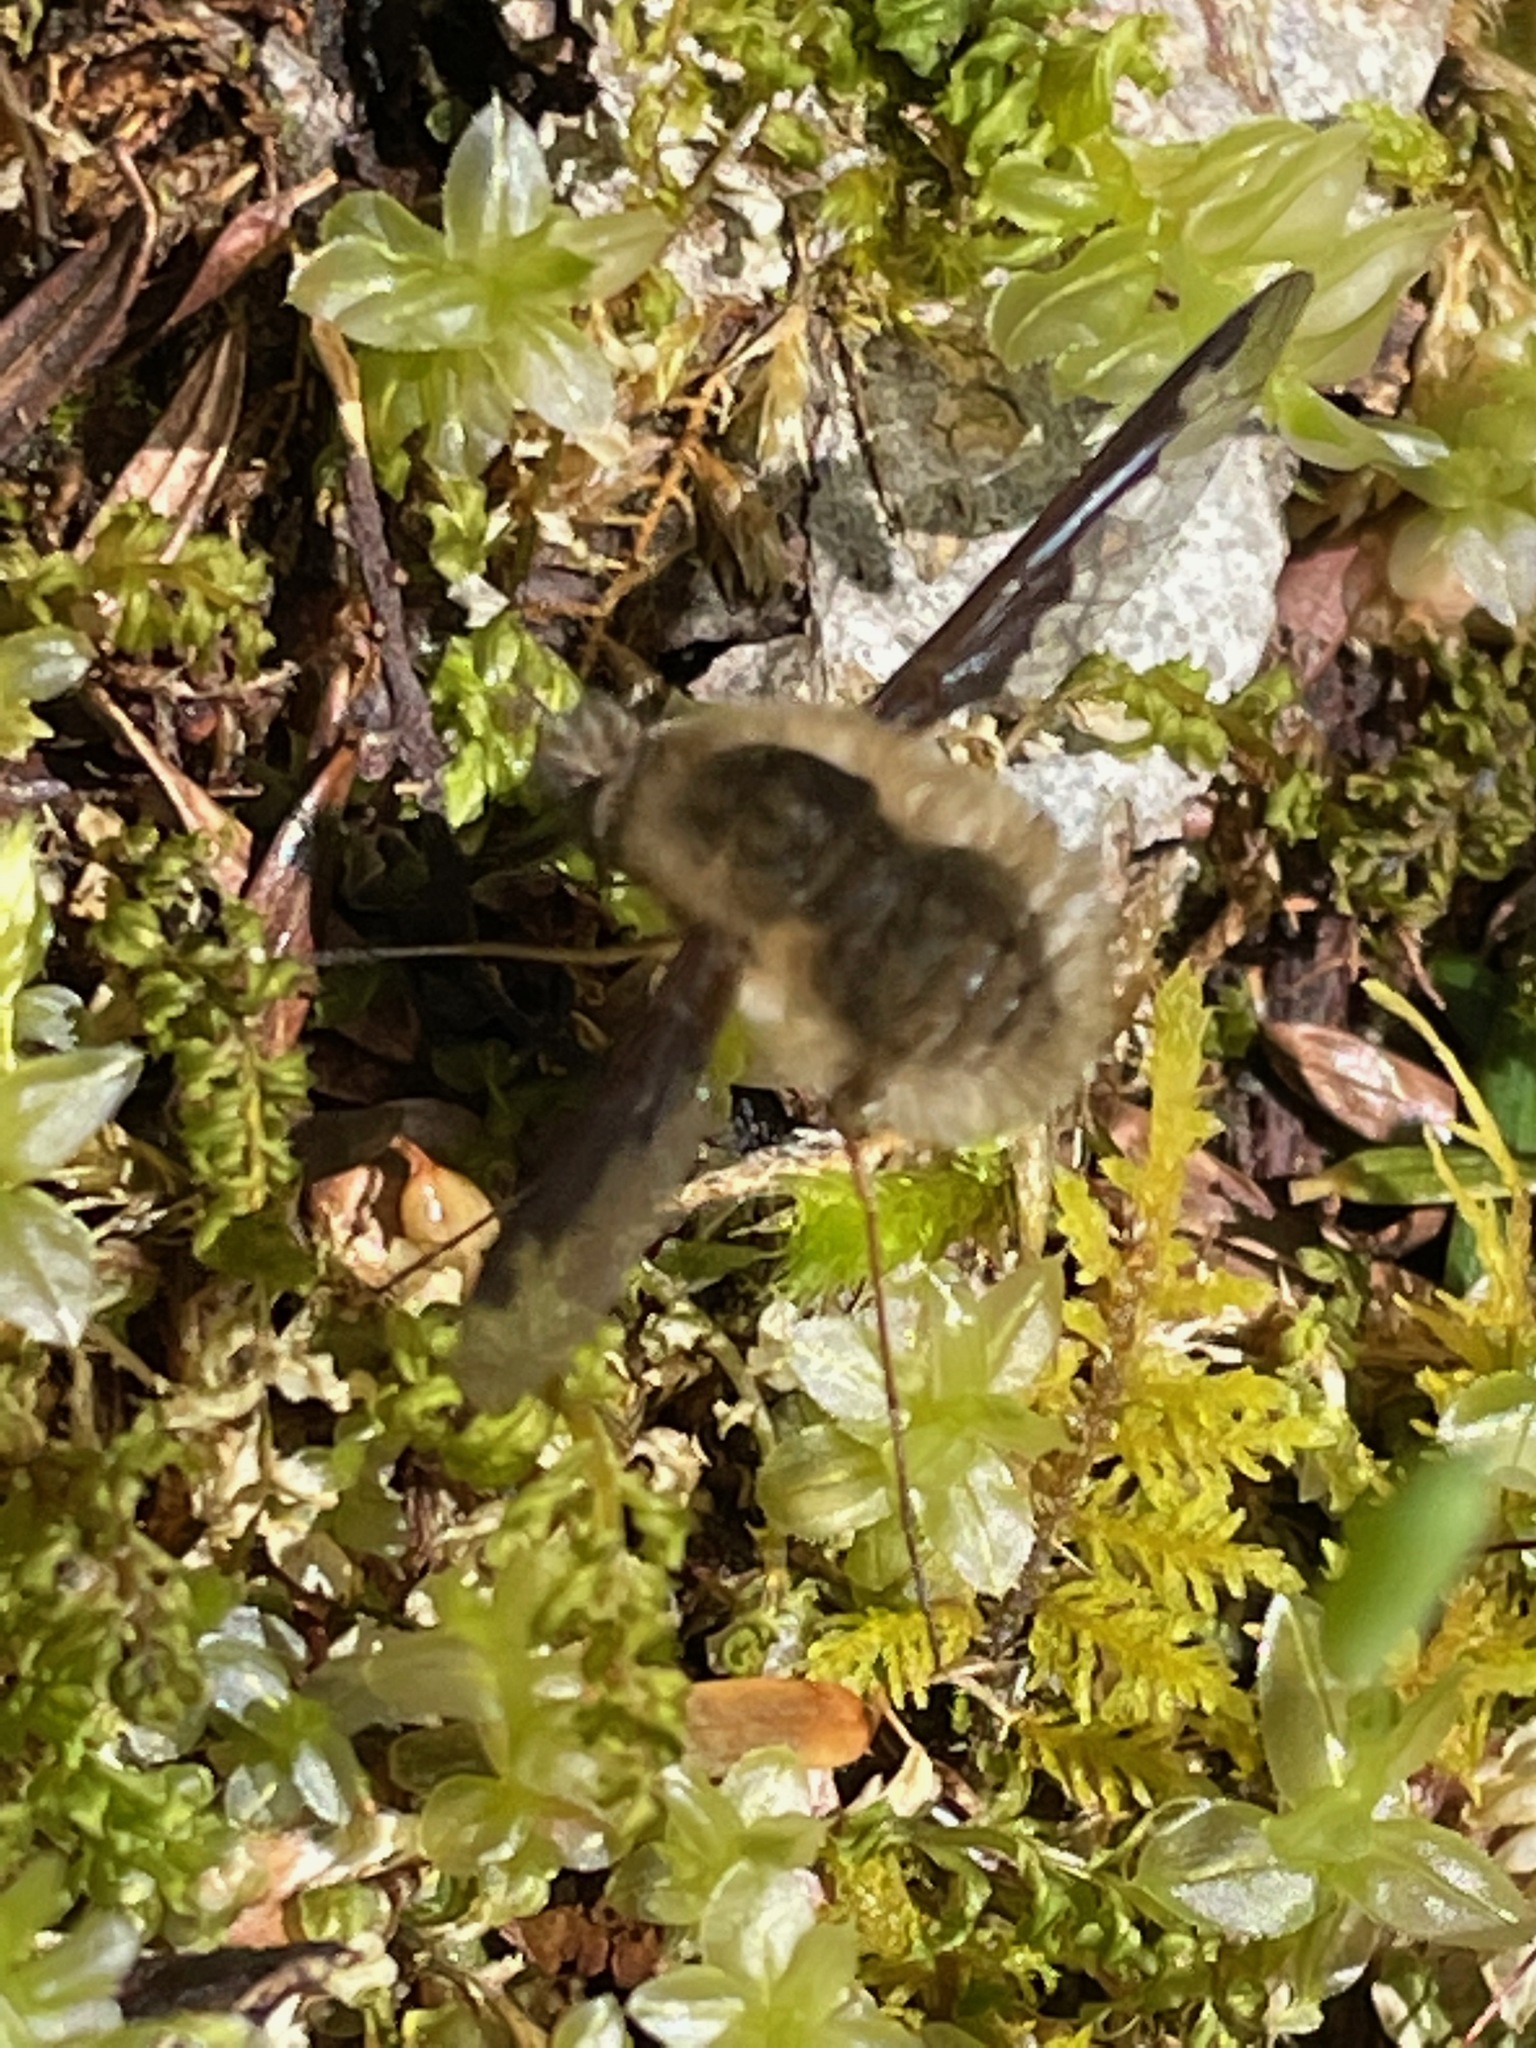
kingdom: Animalia
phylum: Arthropoda
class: Insecta
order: Diptera
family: Bombyliidae
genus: Bombylius
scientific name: Bombylius major
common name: Bee fly
